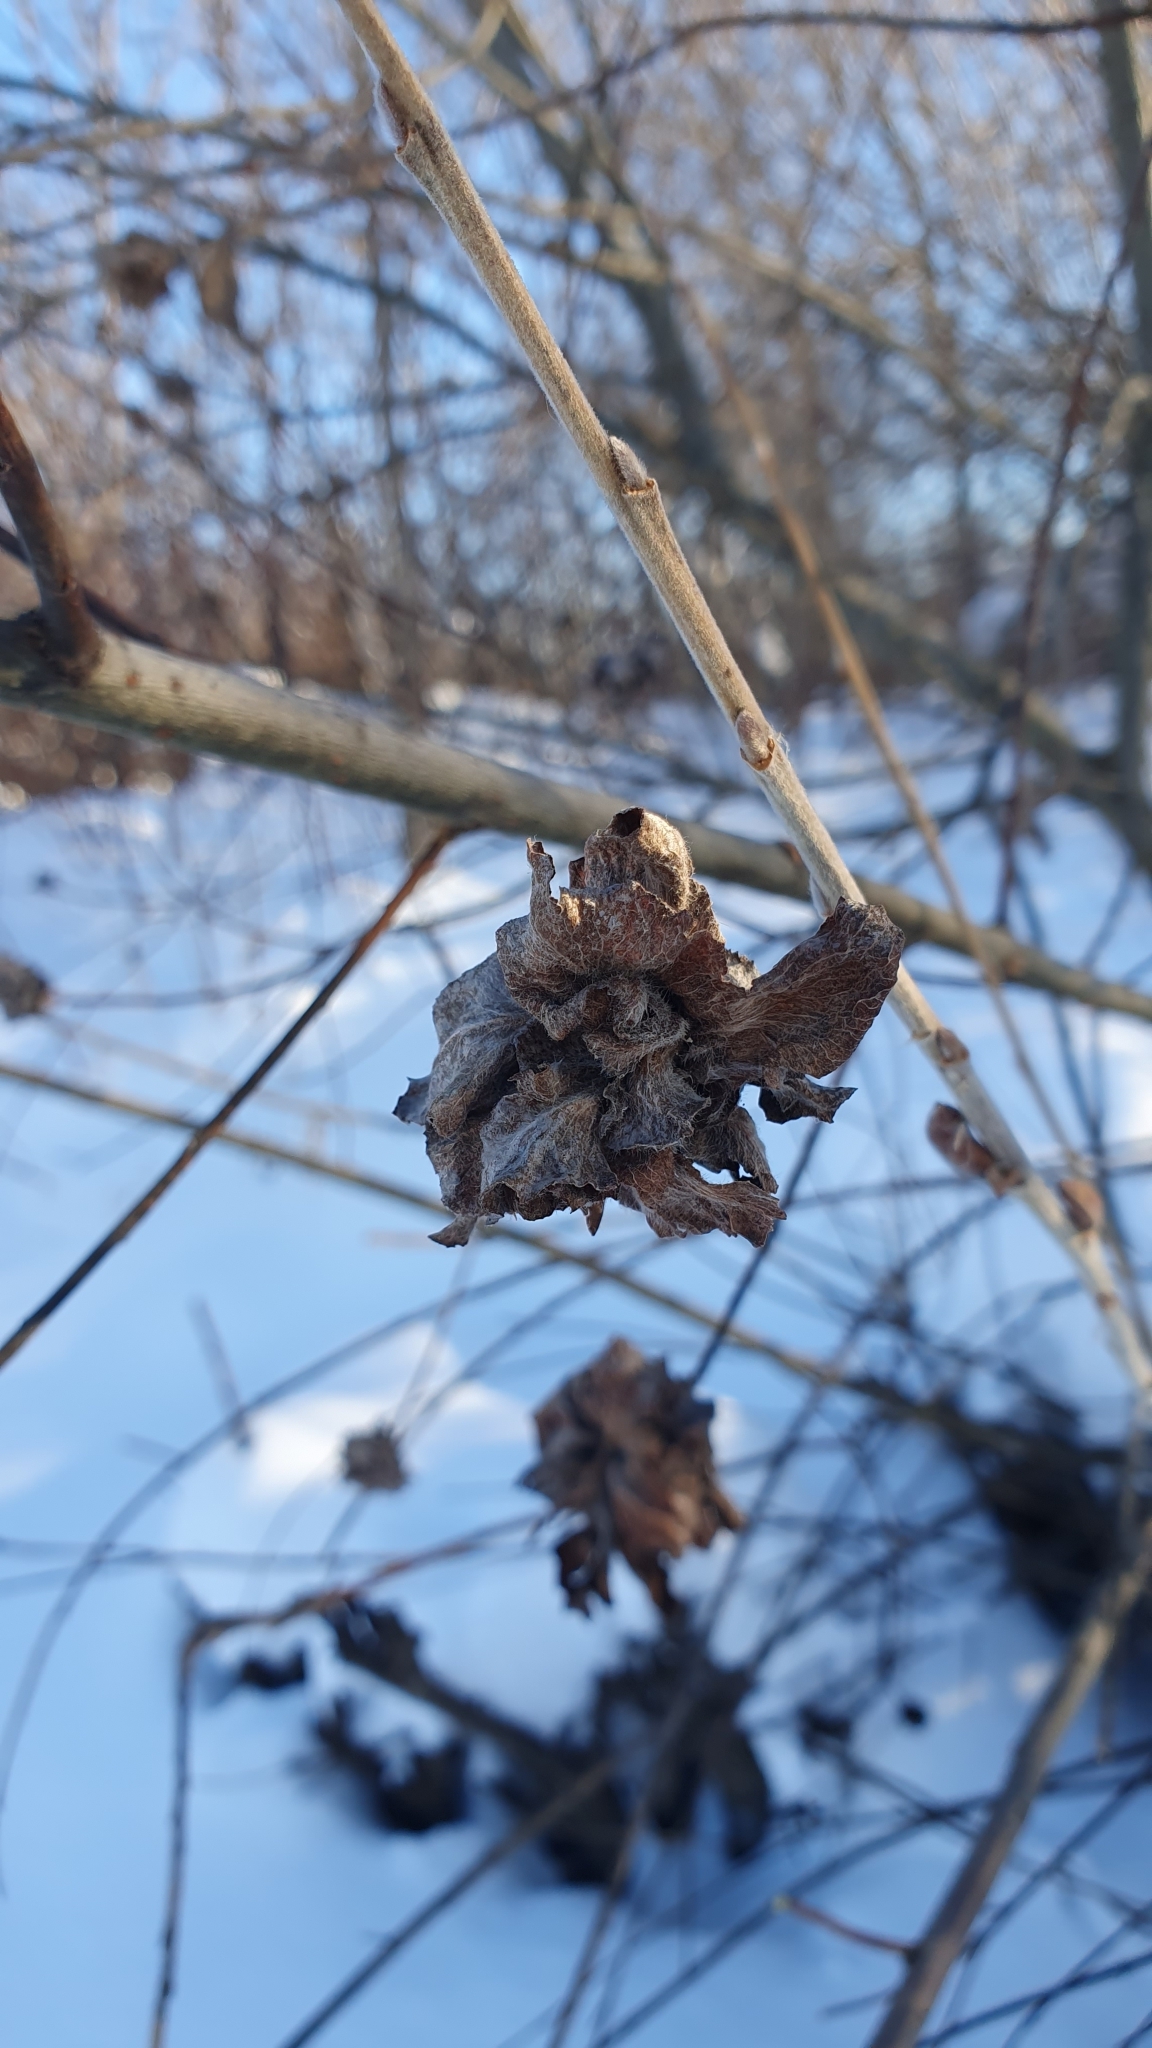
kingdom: Animalia
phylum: Arthropoda
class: Insecta
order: Diptera
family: Cecidomyiidae
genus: Rabdophaga
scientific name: Rabdophaga rosaria
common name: Willow rose gall midge
